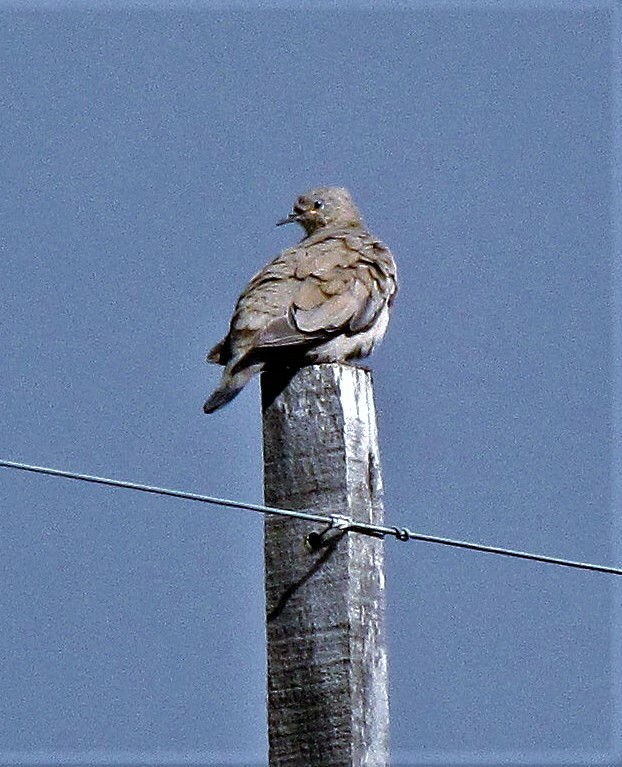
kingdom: Animalia
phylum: Chordata
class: Aves
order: Columbiformes
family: Columbidae
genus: Metriopelia
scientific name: Metriopelia melanoptera
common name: Black-winged ground dove
